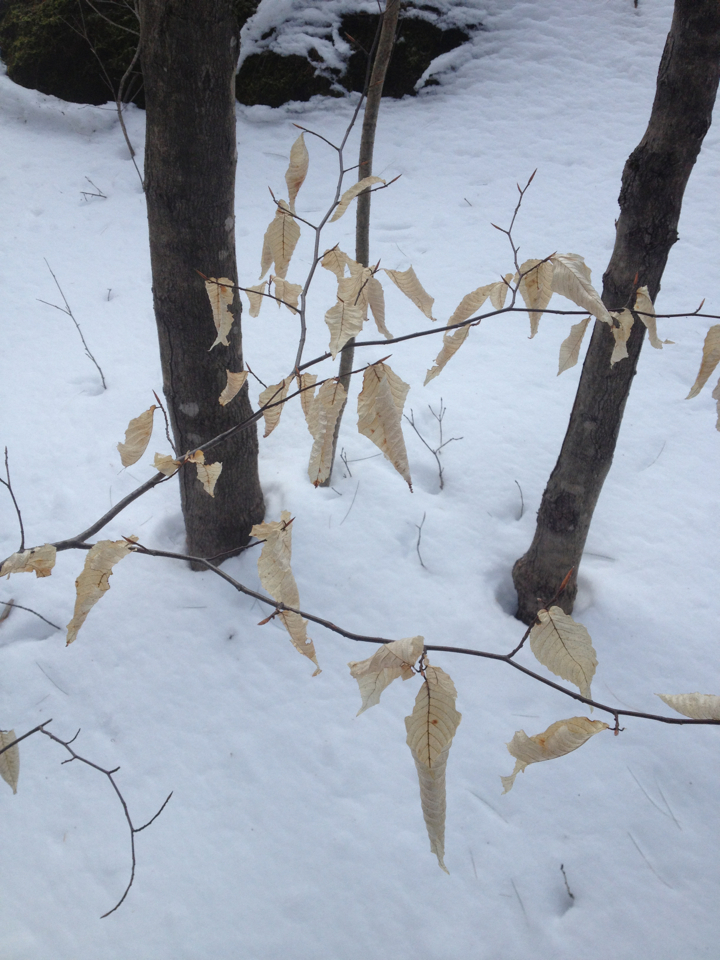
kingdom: Plantae
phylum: Tracheophyta
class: Magnoliopsida
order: Fagales
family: Fagaceae
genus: Fagus
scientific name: Fagus grandifolia
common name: American beech
